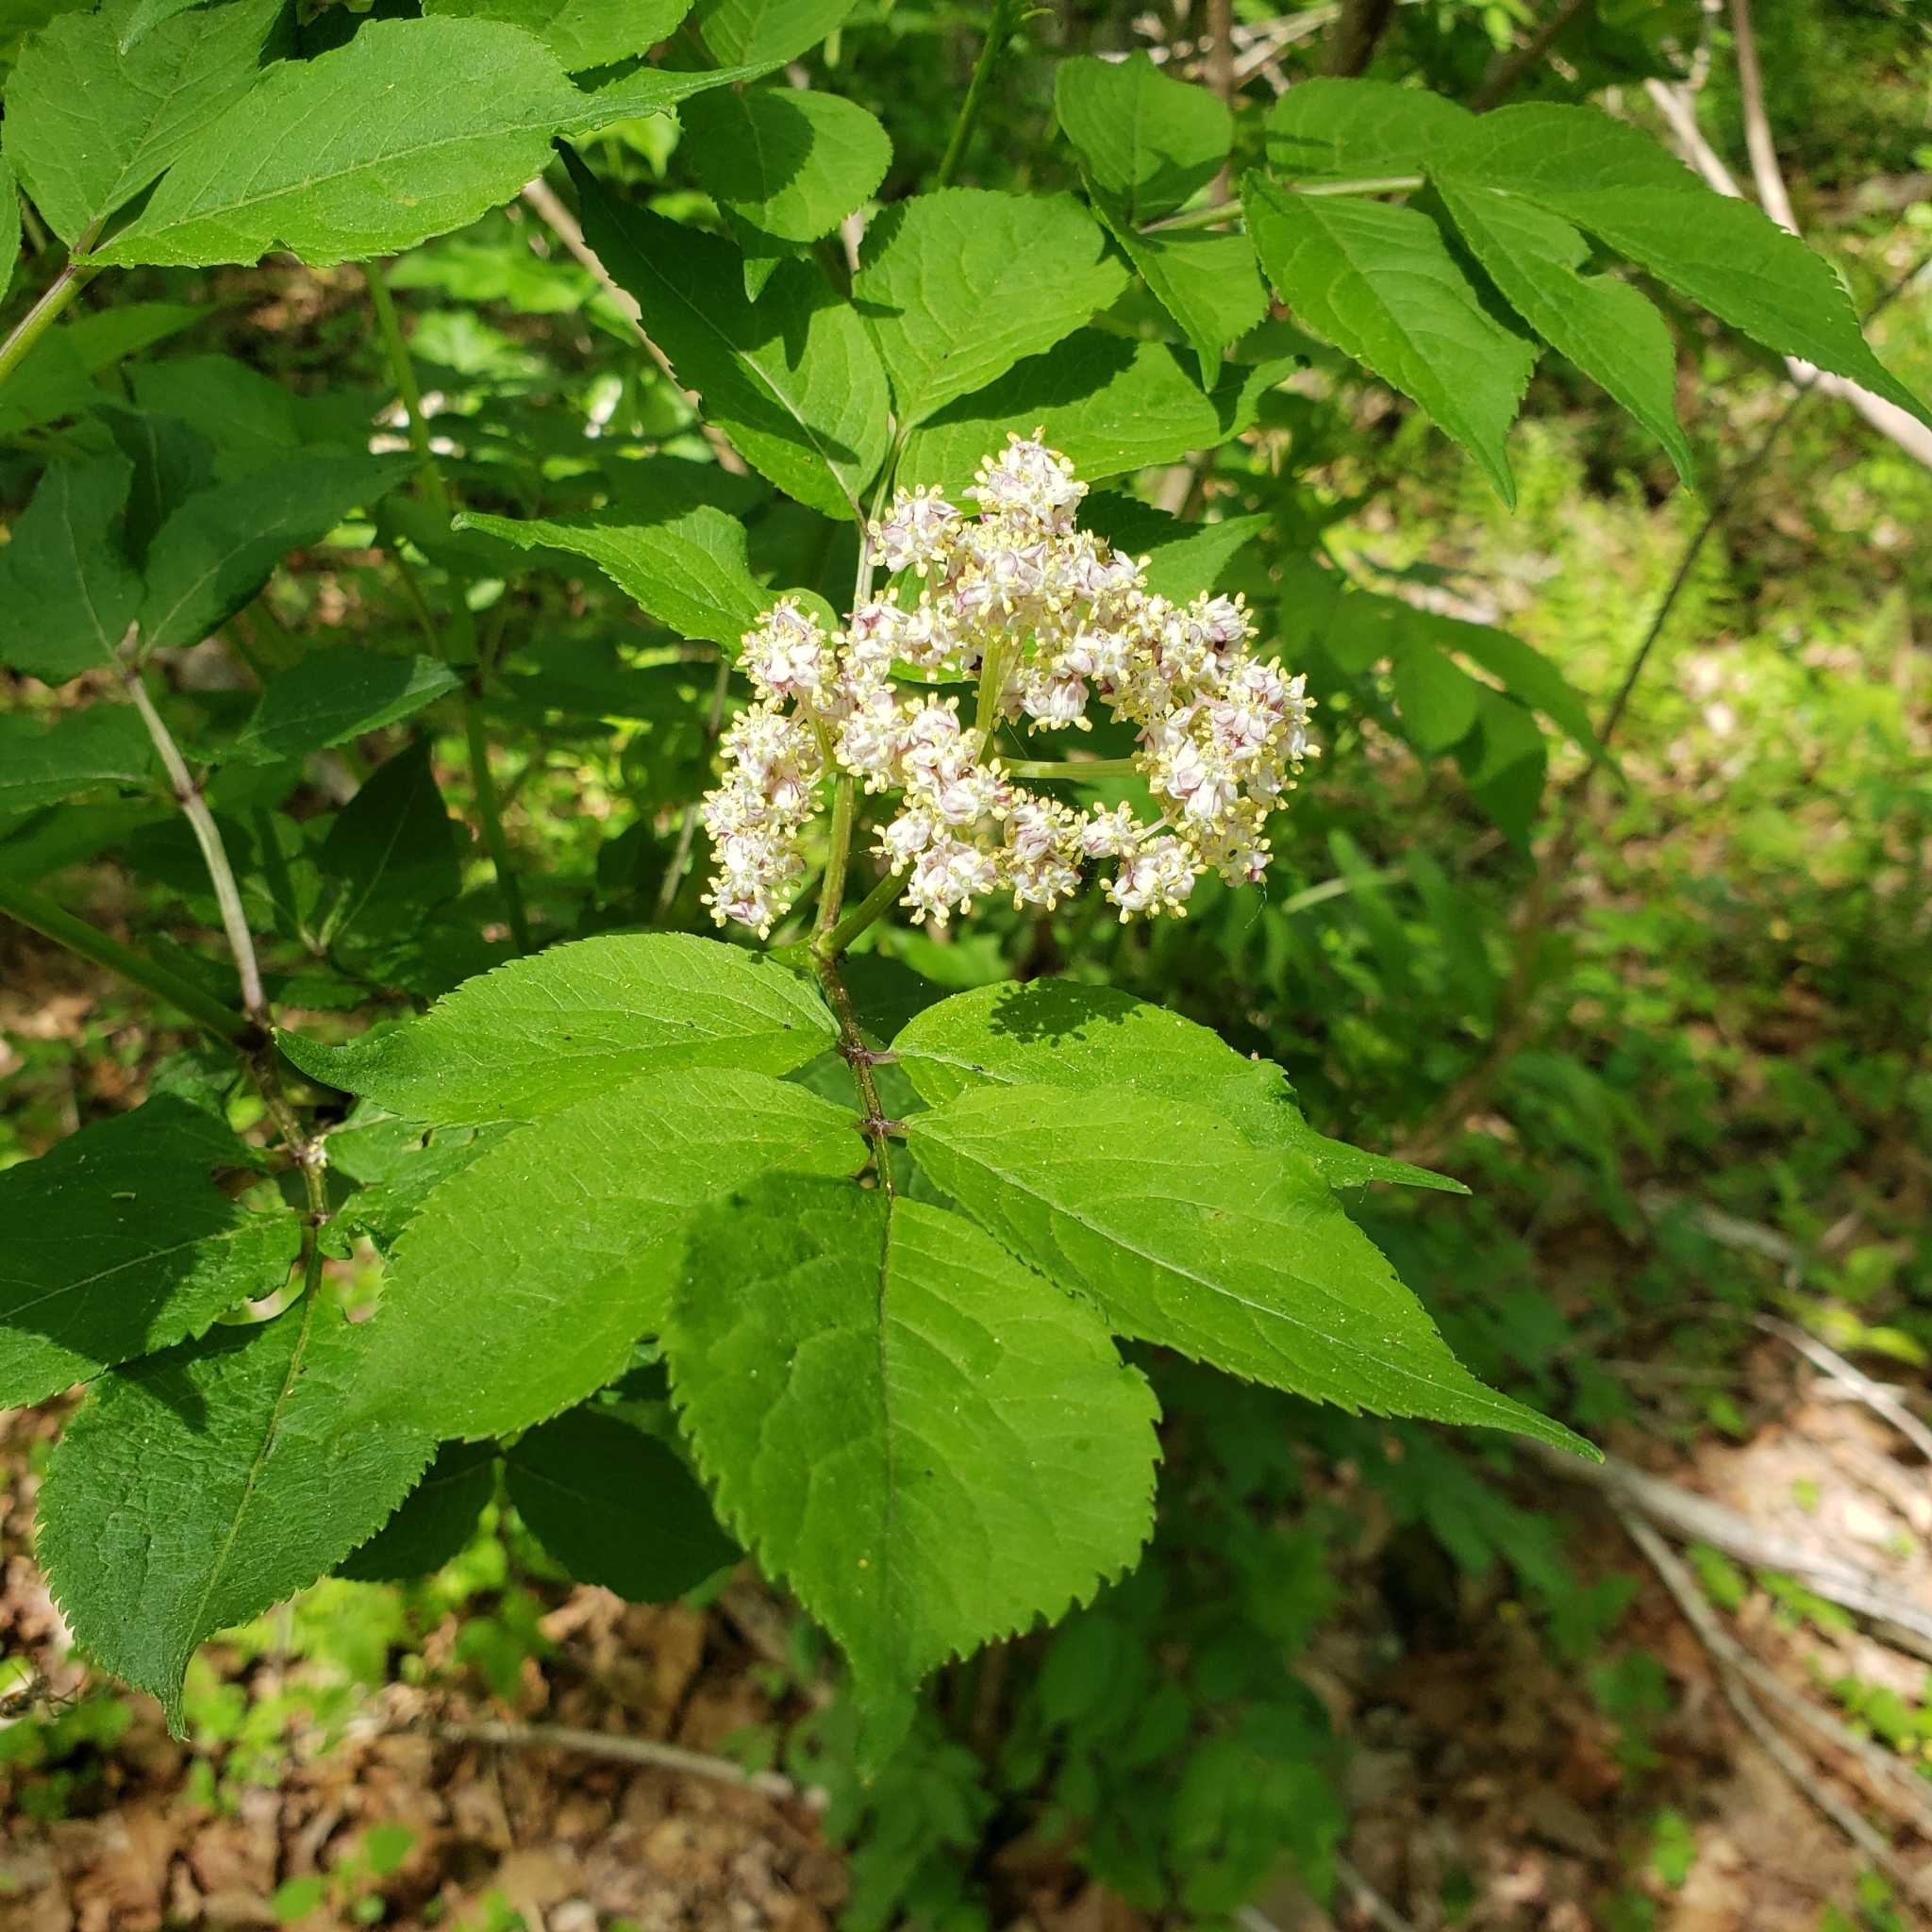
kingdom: Plantae
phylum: Tracheophyta
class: Magnoliopsida
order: Dipsacales
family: Viburnaceae
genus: Sambucus
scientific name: Sambucus racemosa
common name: Red-berried elder
